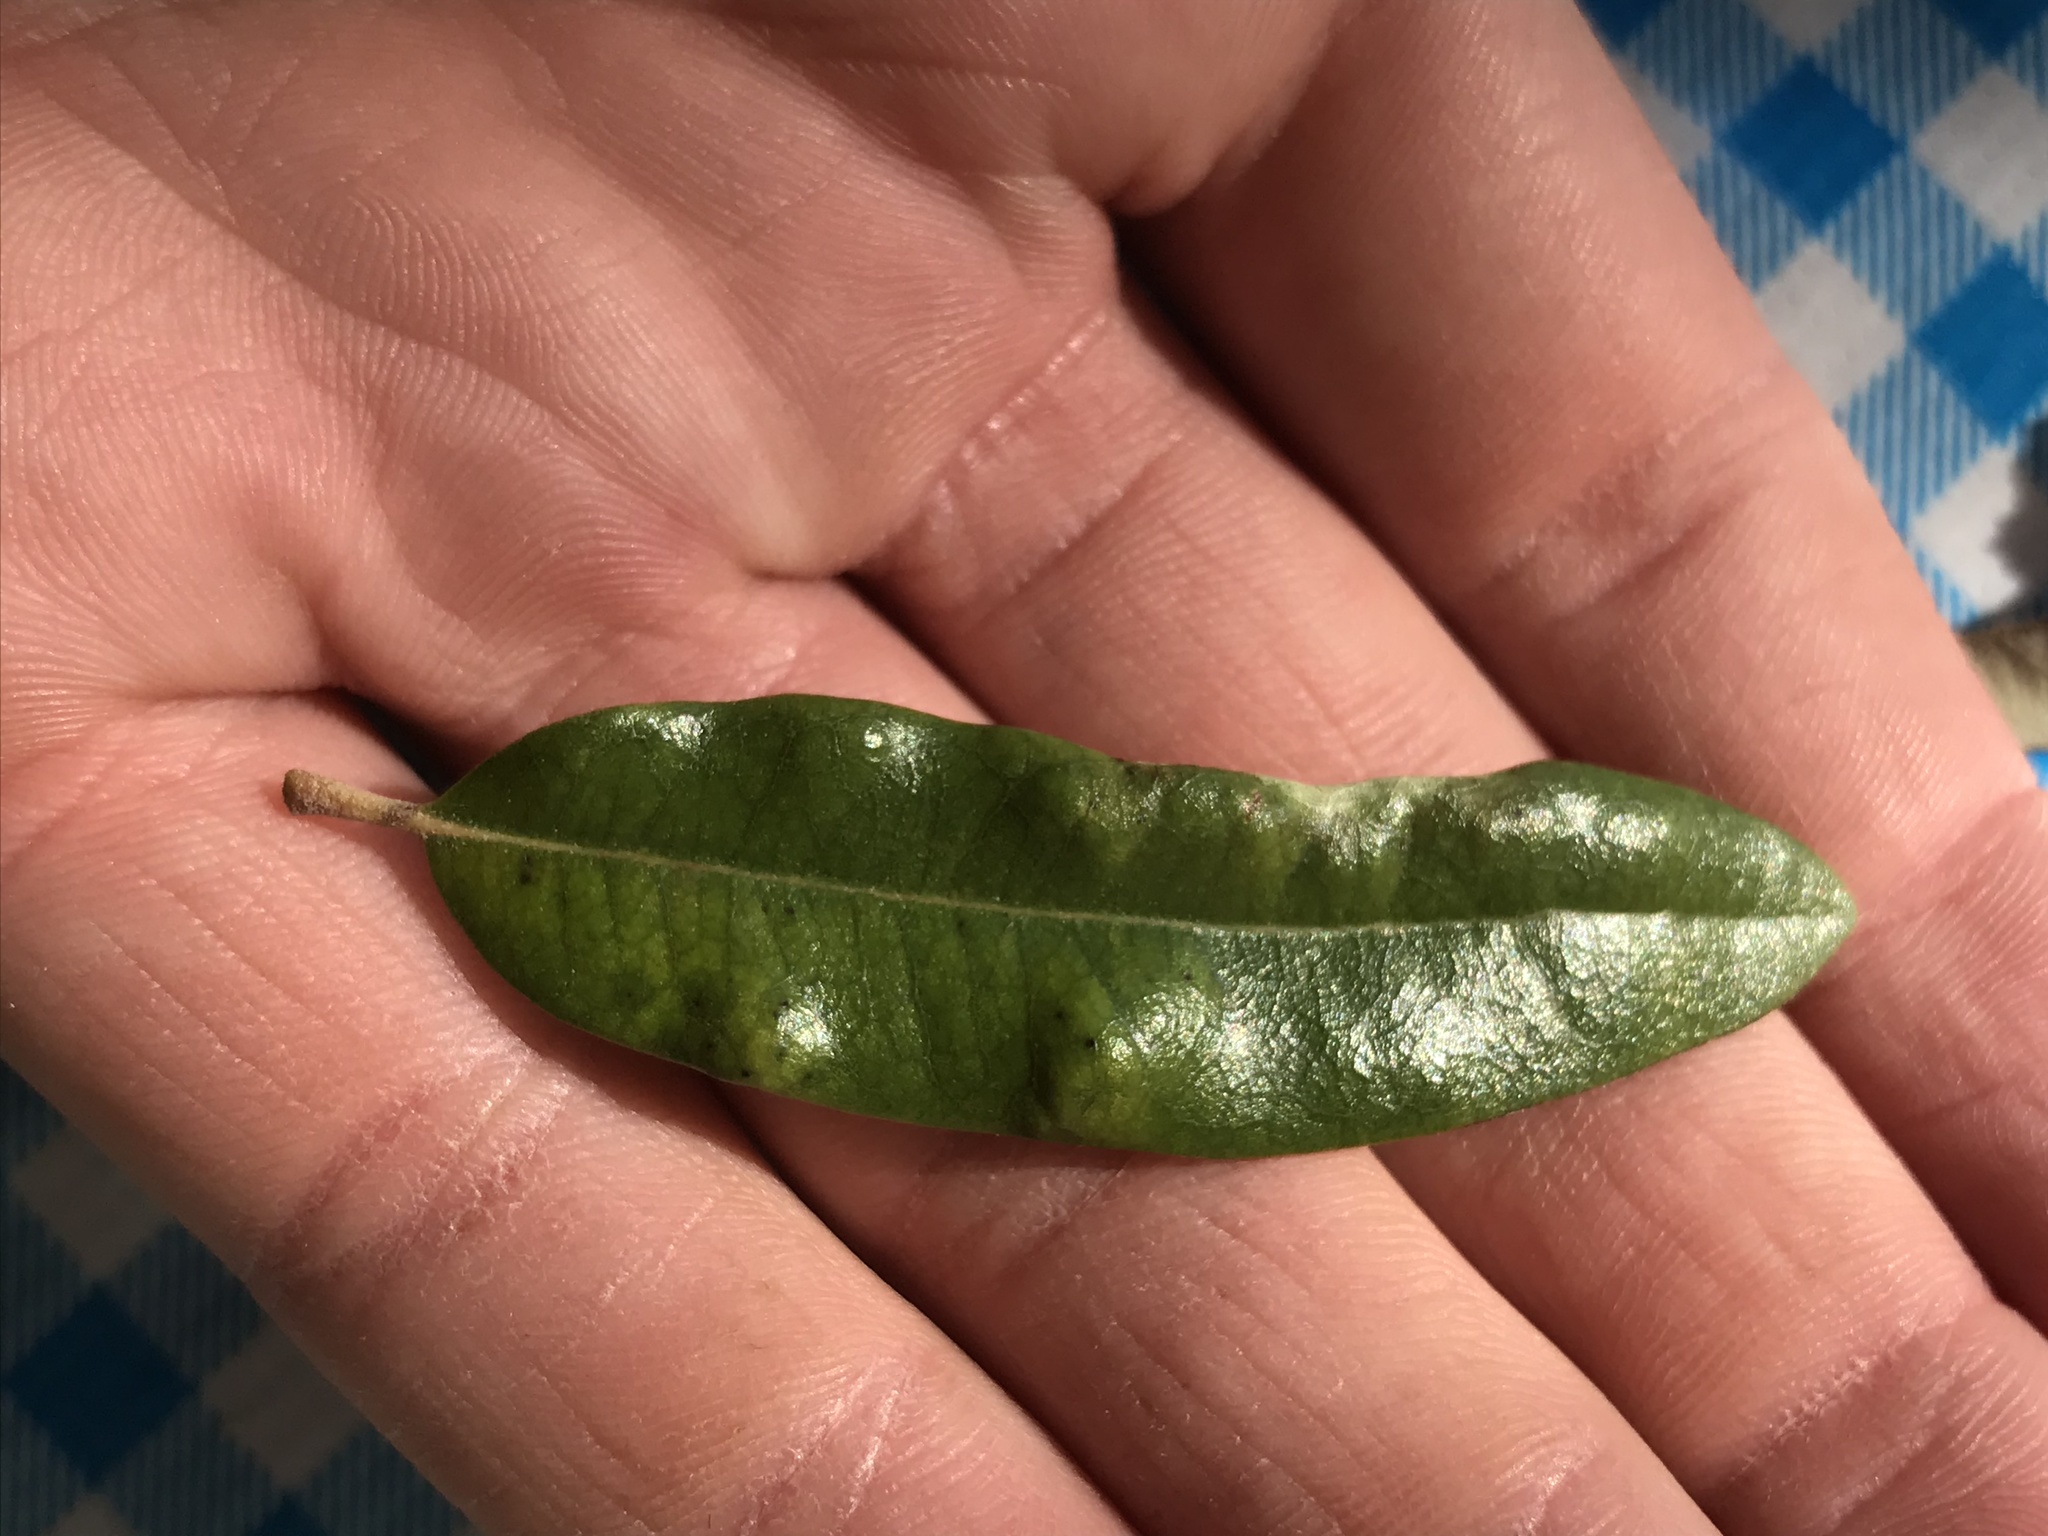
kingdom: Animalia
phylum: Arthropoda
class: Arachnida
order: Trombidiformes
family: Eriophyidae
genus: Aceria
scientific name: Aceria quercina
